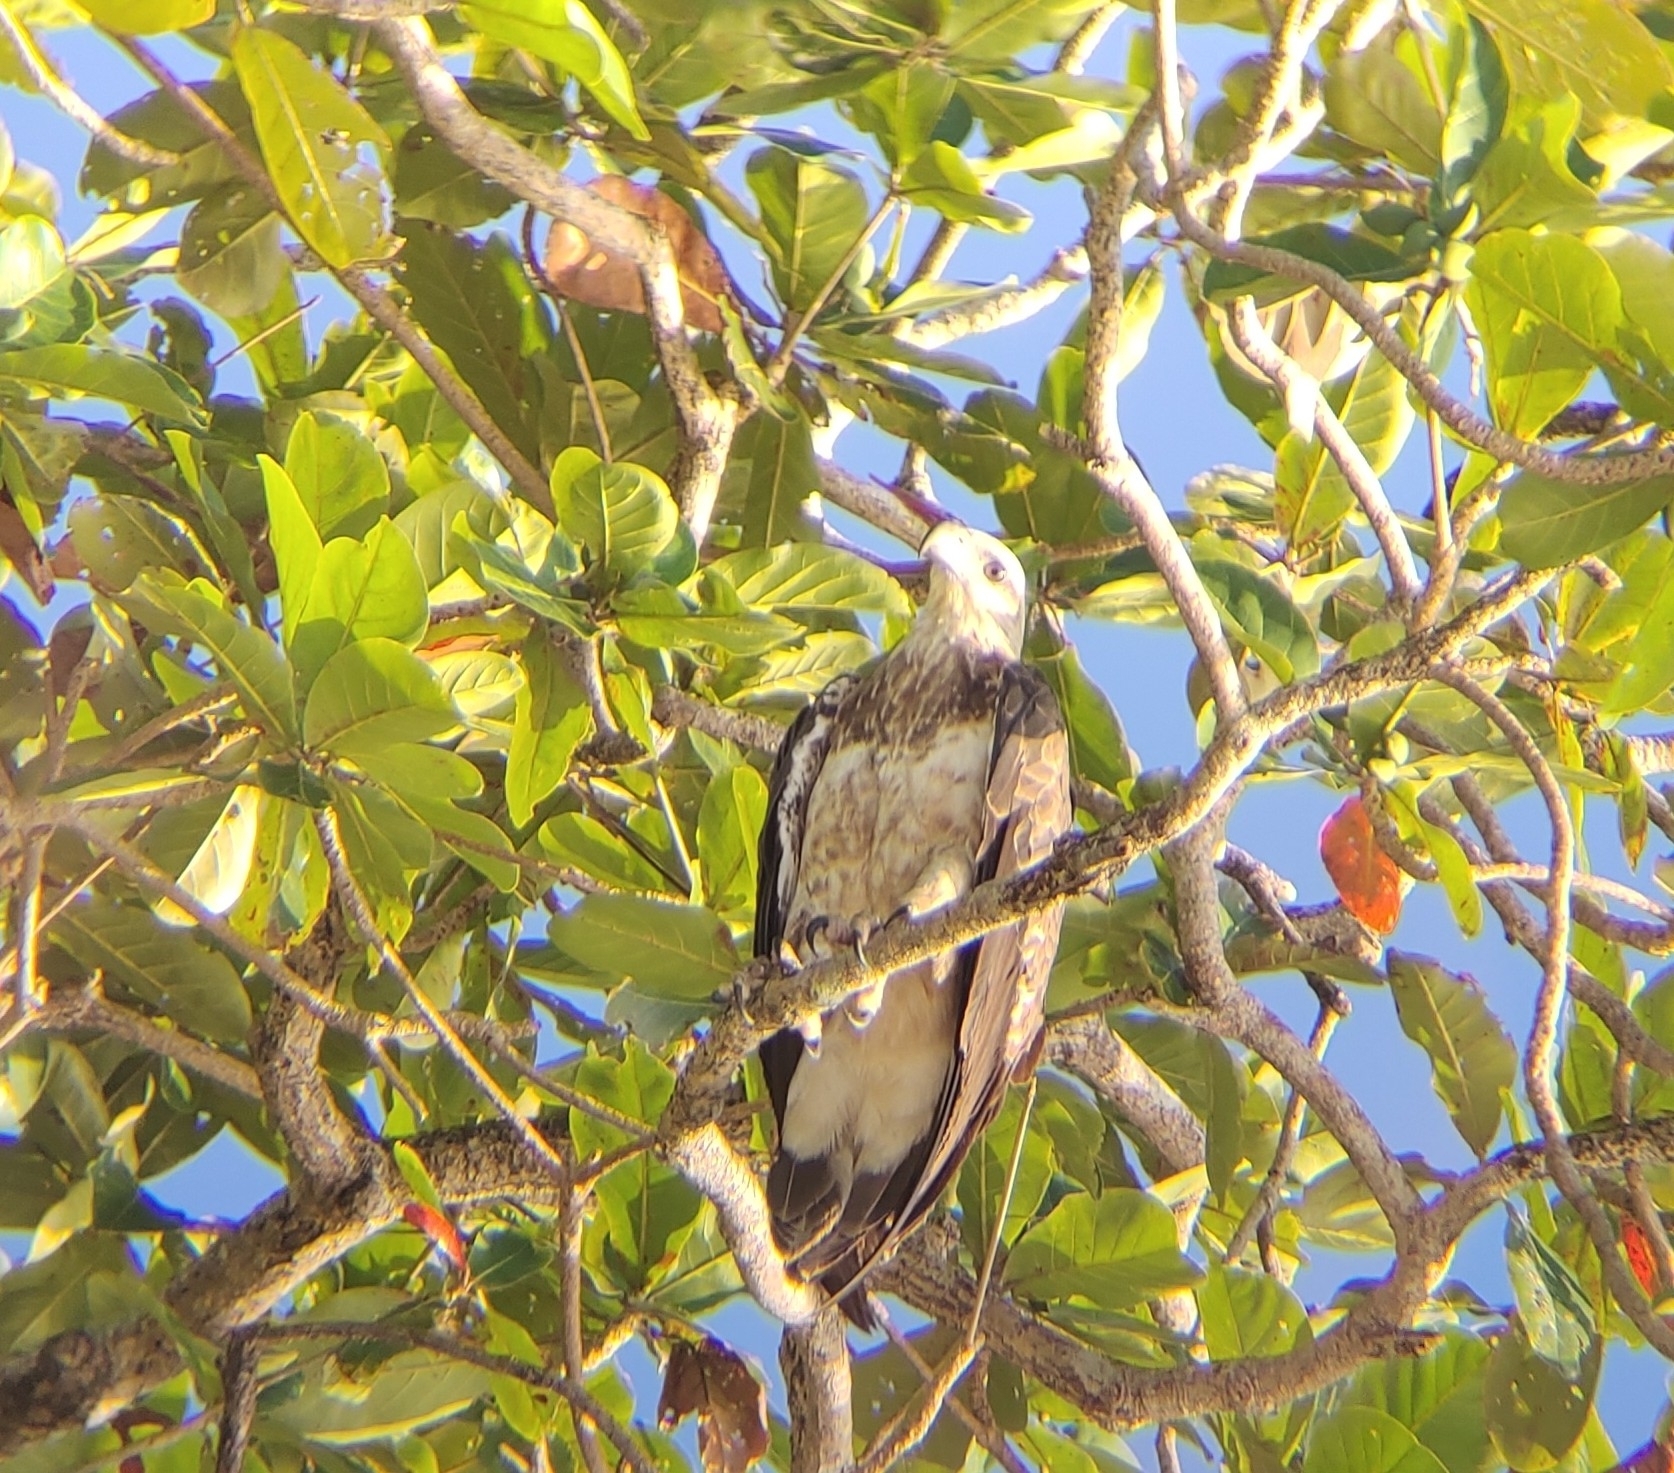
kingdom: Animalia
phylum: Chordata
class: Aves
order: Accipitriformes
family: Accipitridae
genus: Haliaeetus
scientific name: Haliaeetus leucogaster
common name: White-bellied sea eagle
